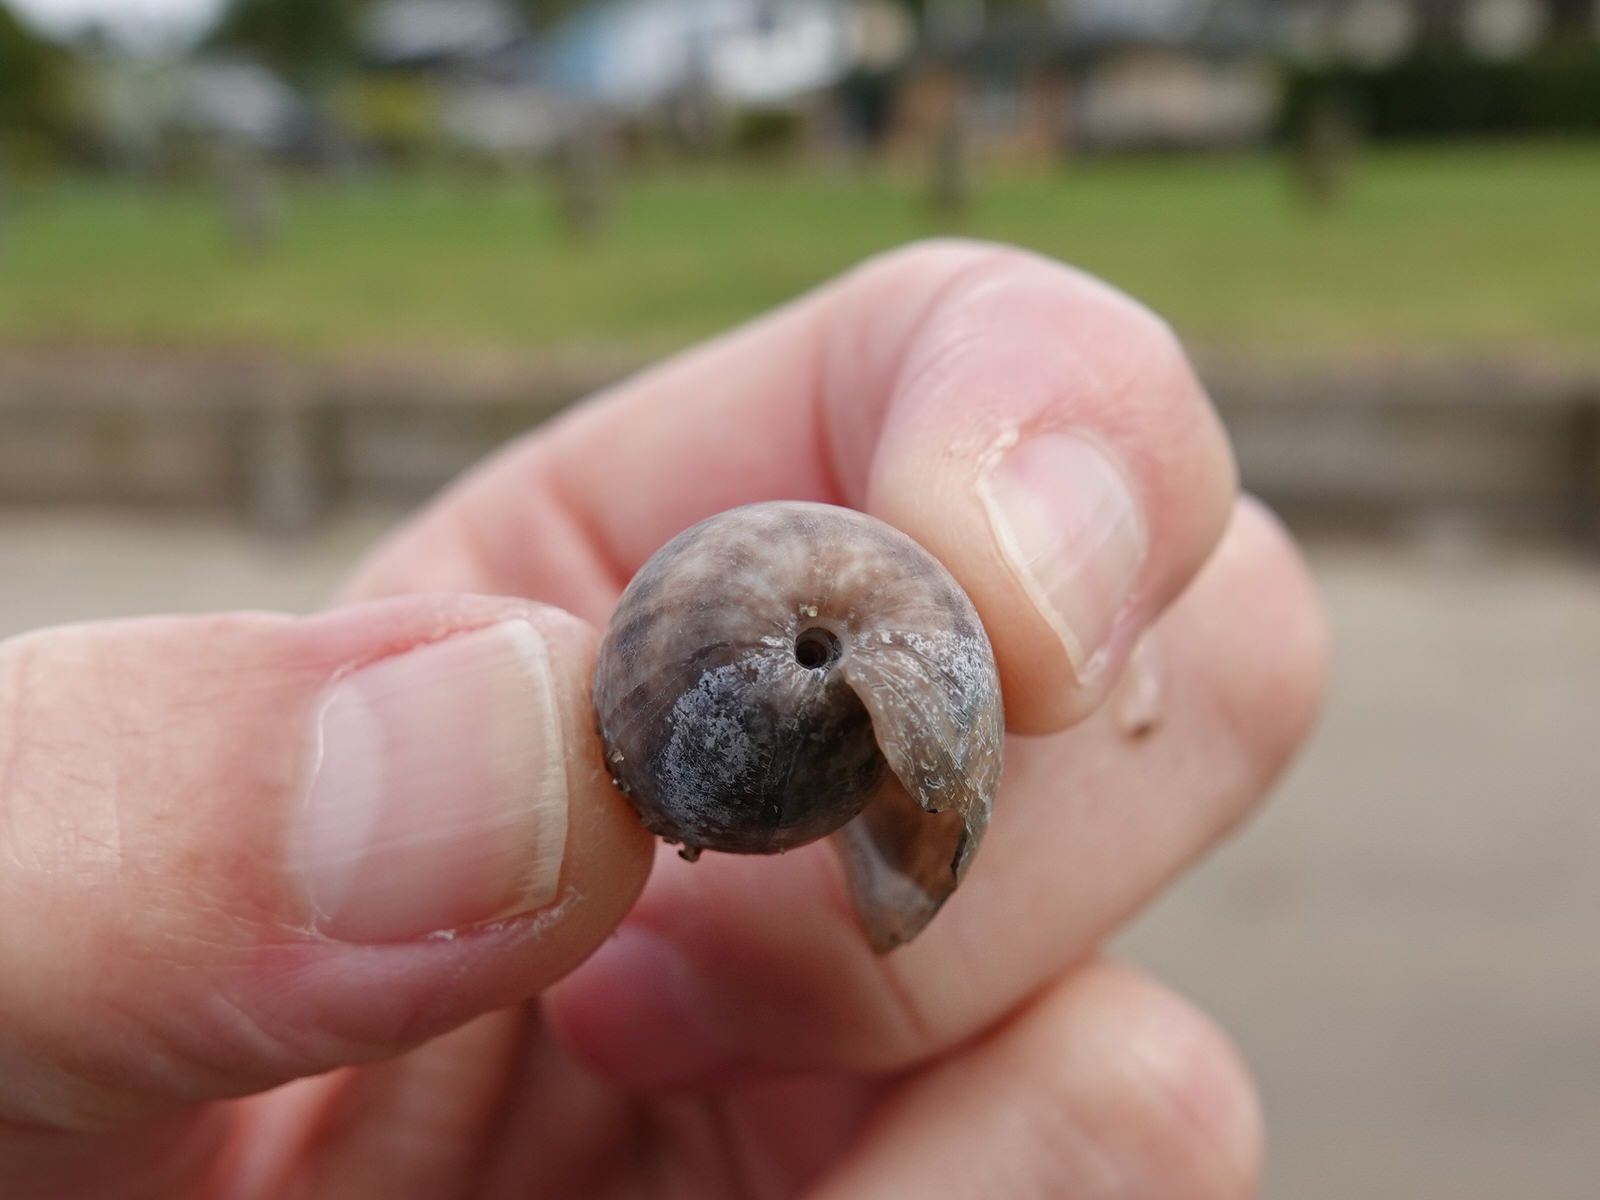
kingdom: Animalia
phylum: Mollusca
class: Gastropoda
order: Cephalaspidea
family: Bullidae
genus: Bulla
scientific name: Bulla quoyii
